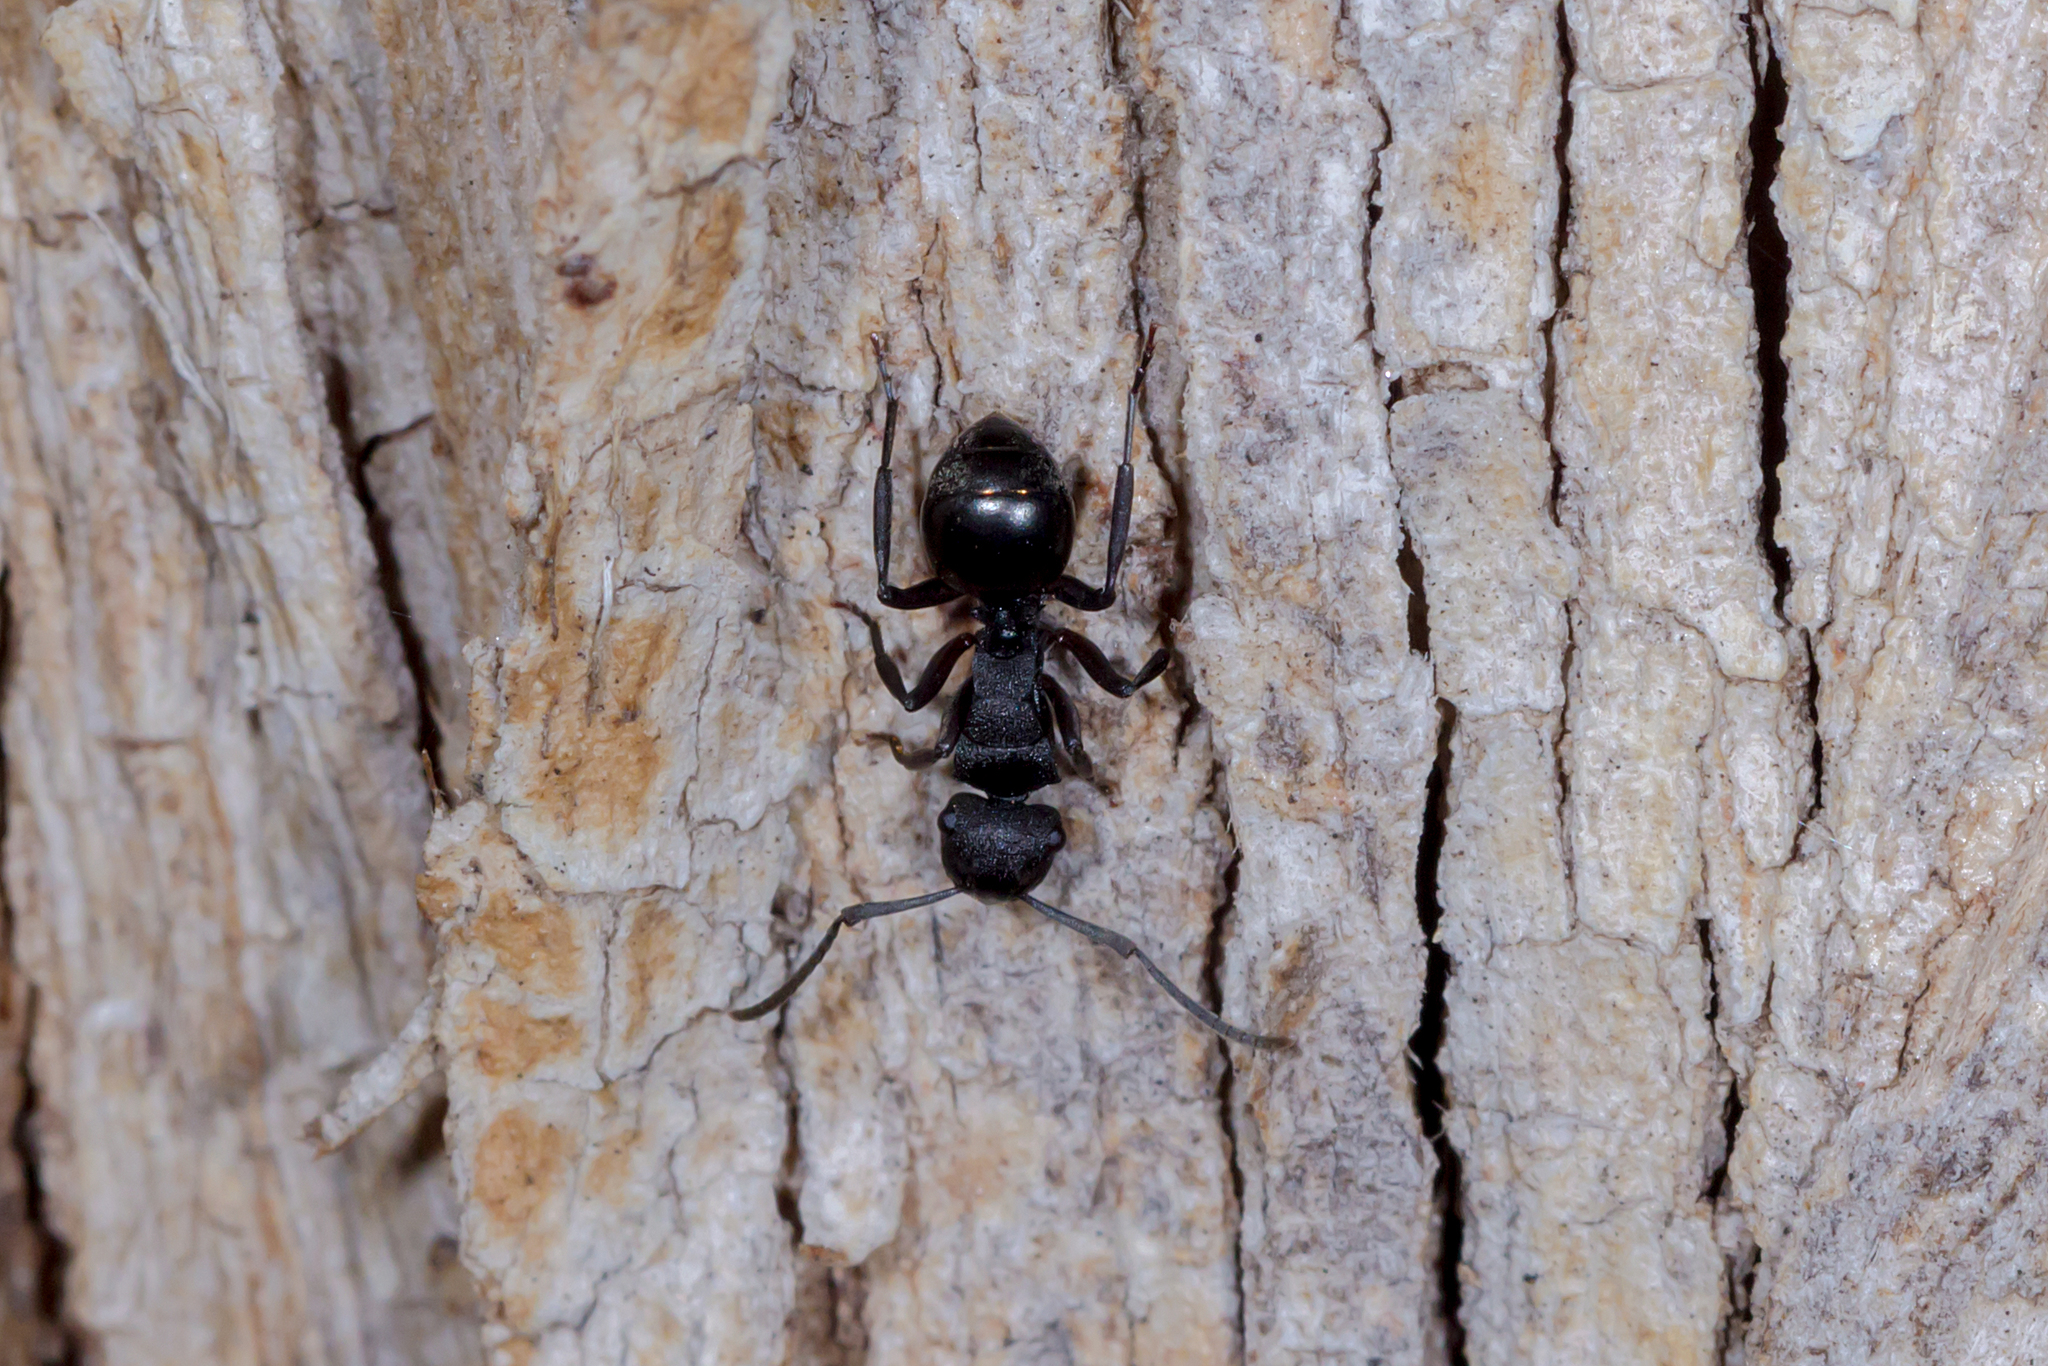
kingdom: Animalia
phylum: Arthropoda
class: Insecta
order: Hymenoptera
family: Formicidae
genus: Polyrhachis
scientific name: Polyrhachis phryne
